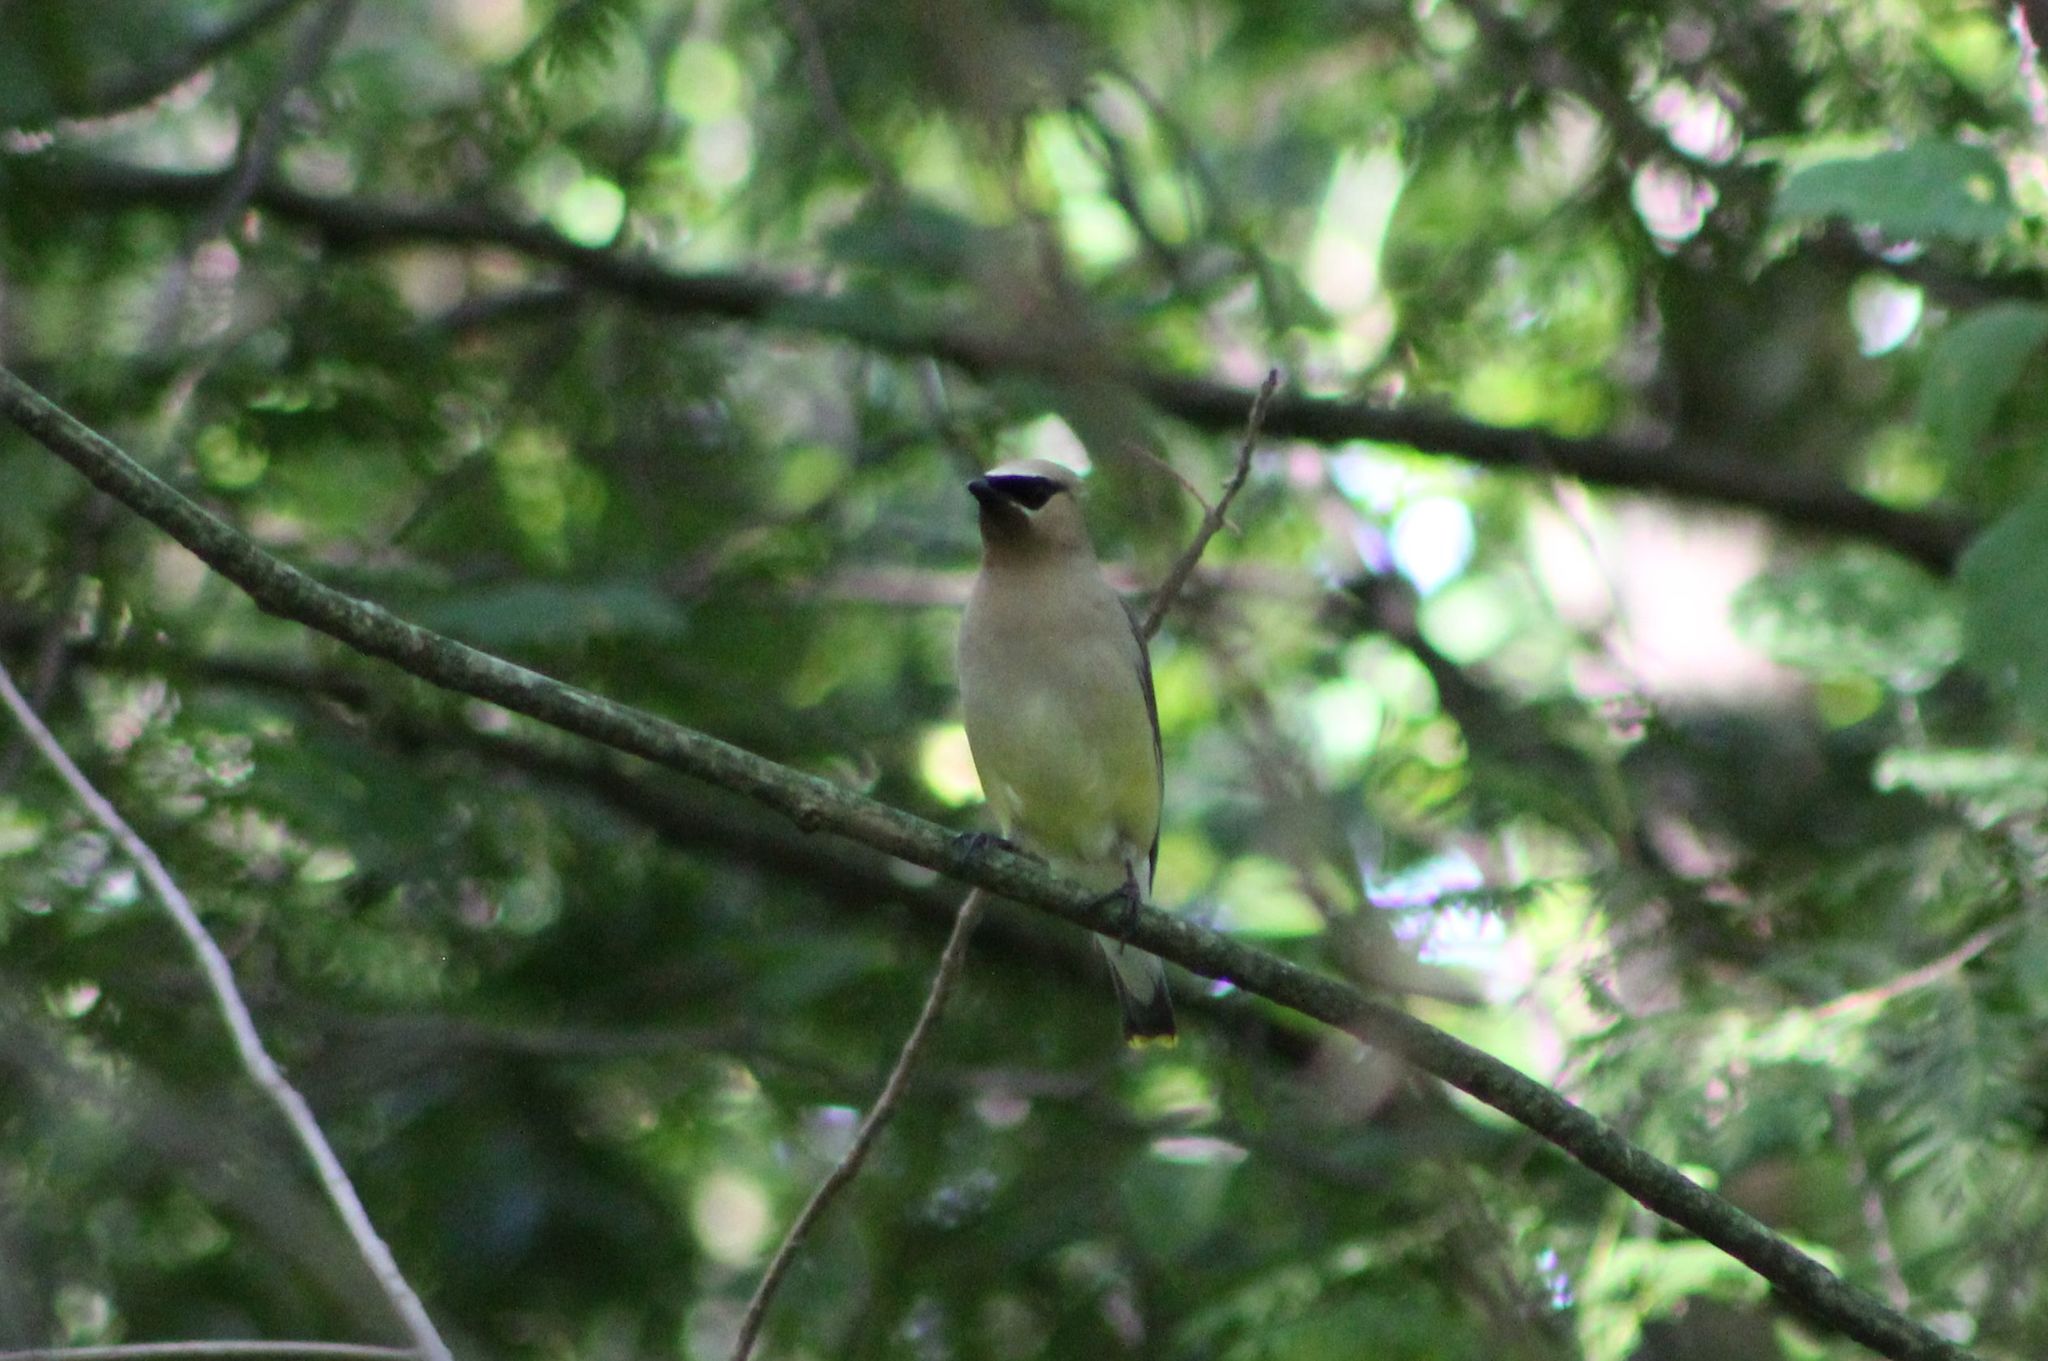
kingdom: Animalia
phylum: Chordata
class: Aves
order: Passeriformes
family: Bombycillidae
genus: Bombycilla
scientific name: Bombycilla cedrorum
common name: Cedar waxwing
